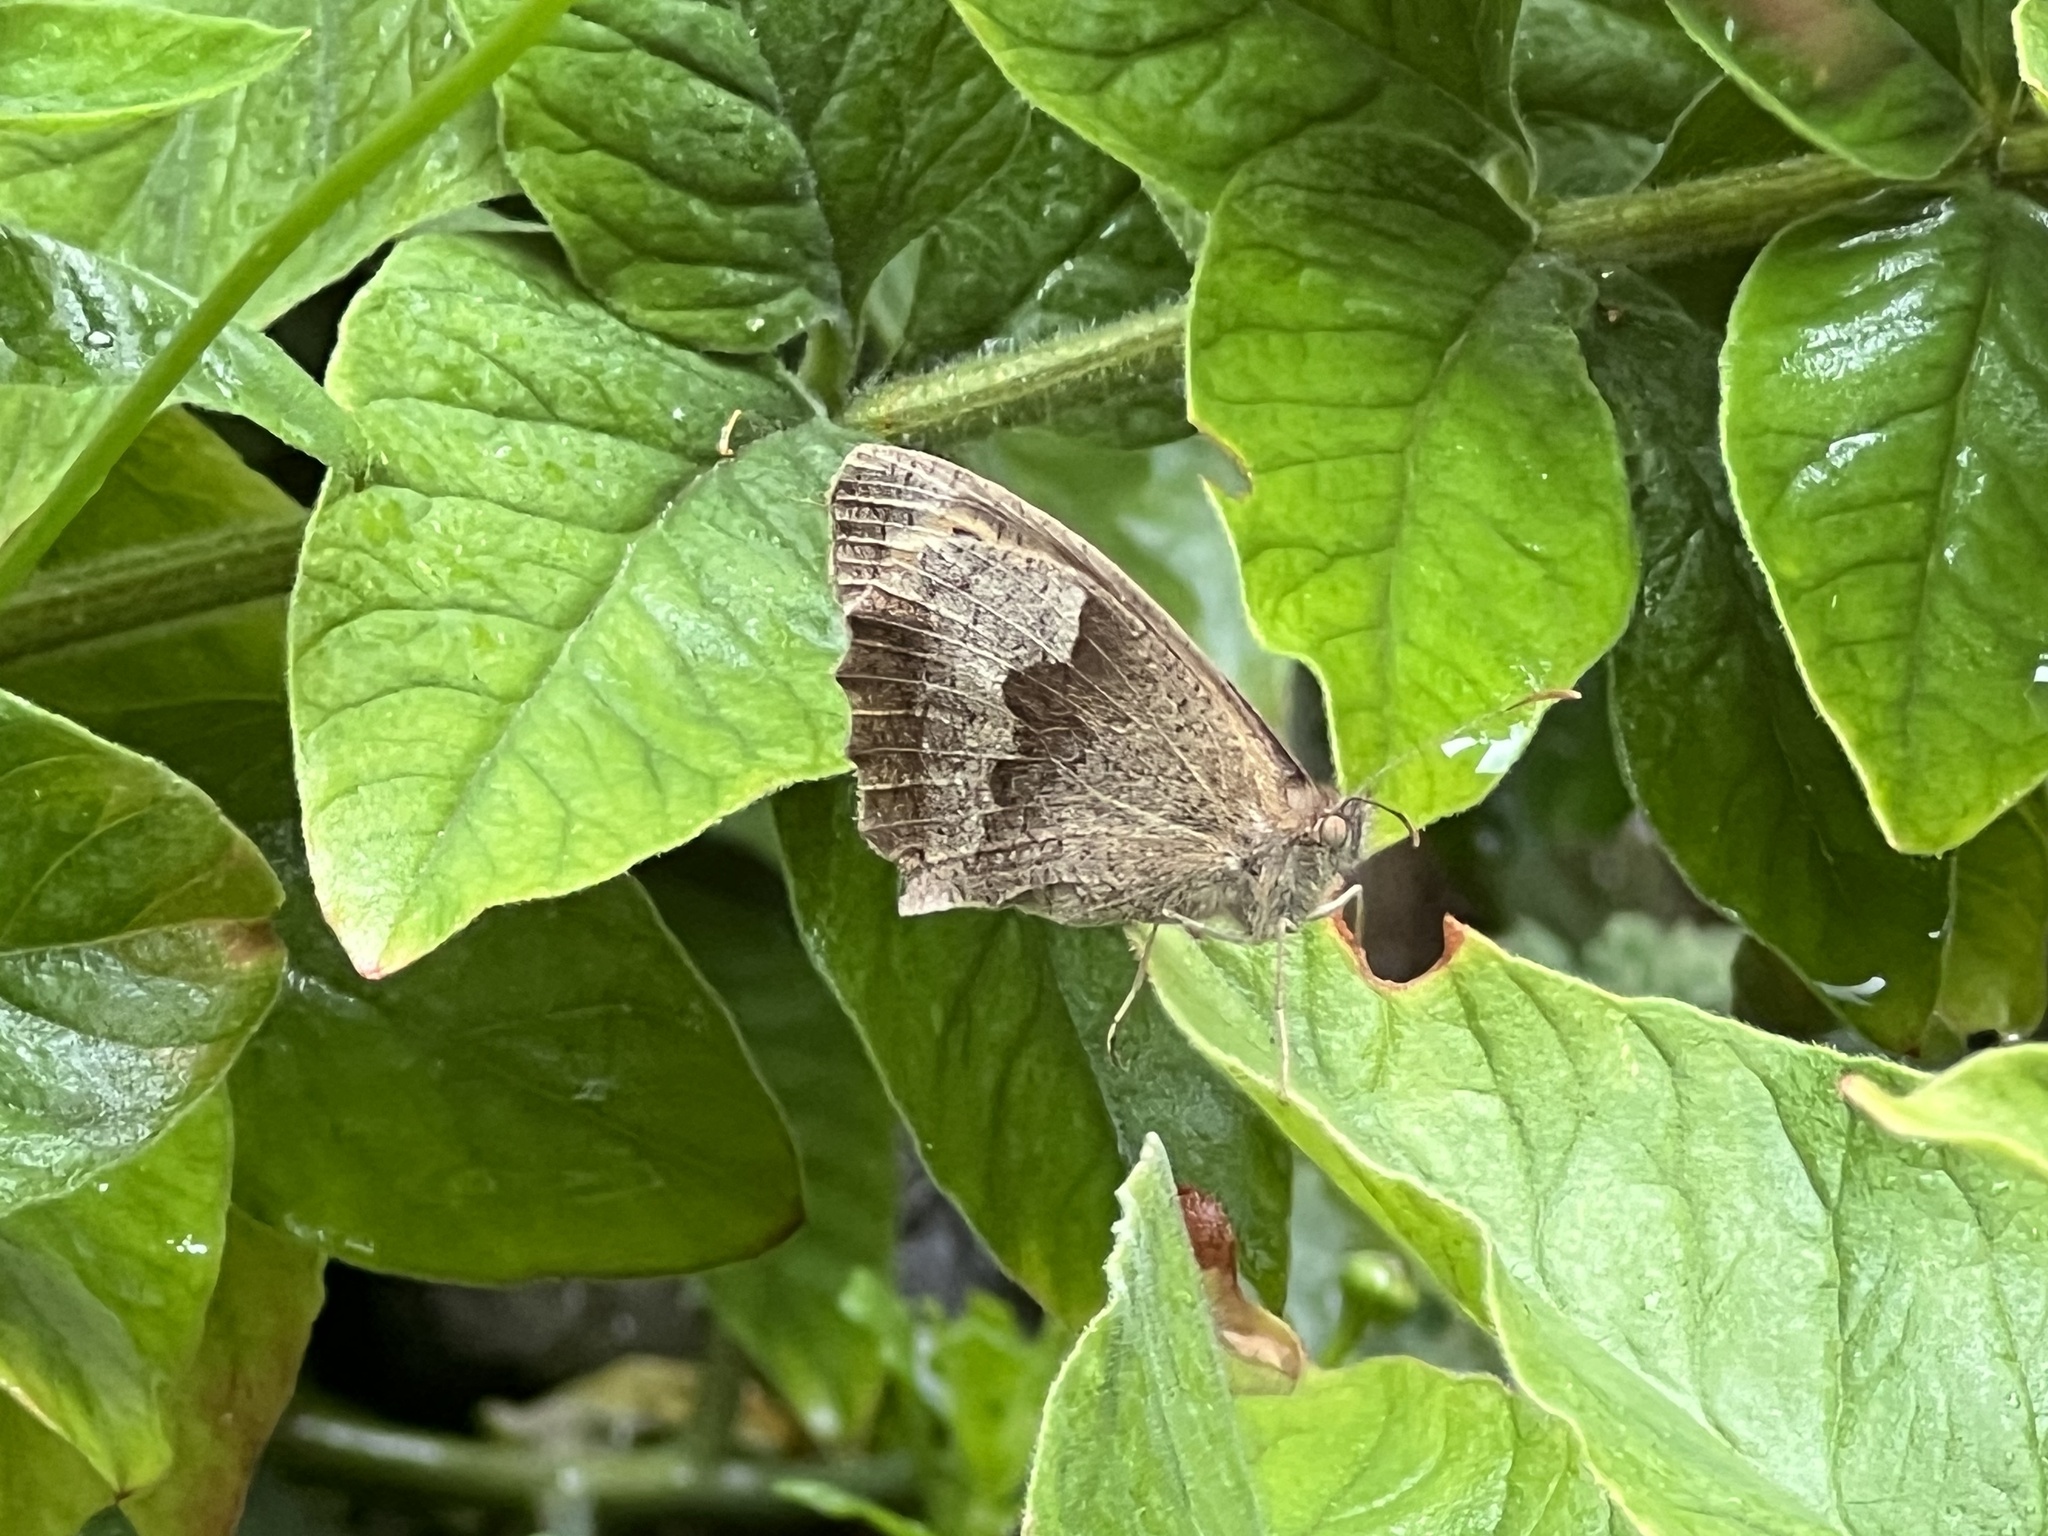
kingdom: Animalia
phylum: Arthropoda
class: Insecta
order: Lepidoptera
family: Nymphalidae
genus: Maniola
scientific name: Maniola jurtina
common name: Meadow brown
